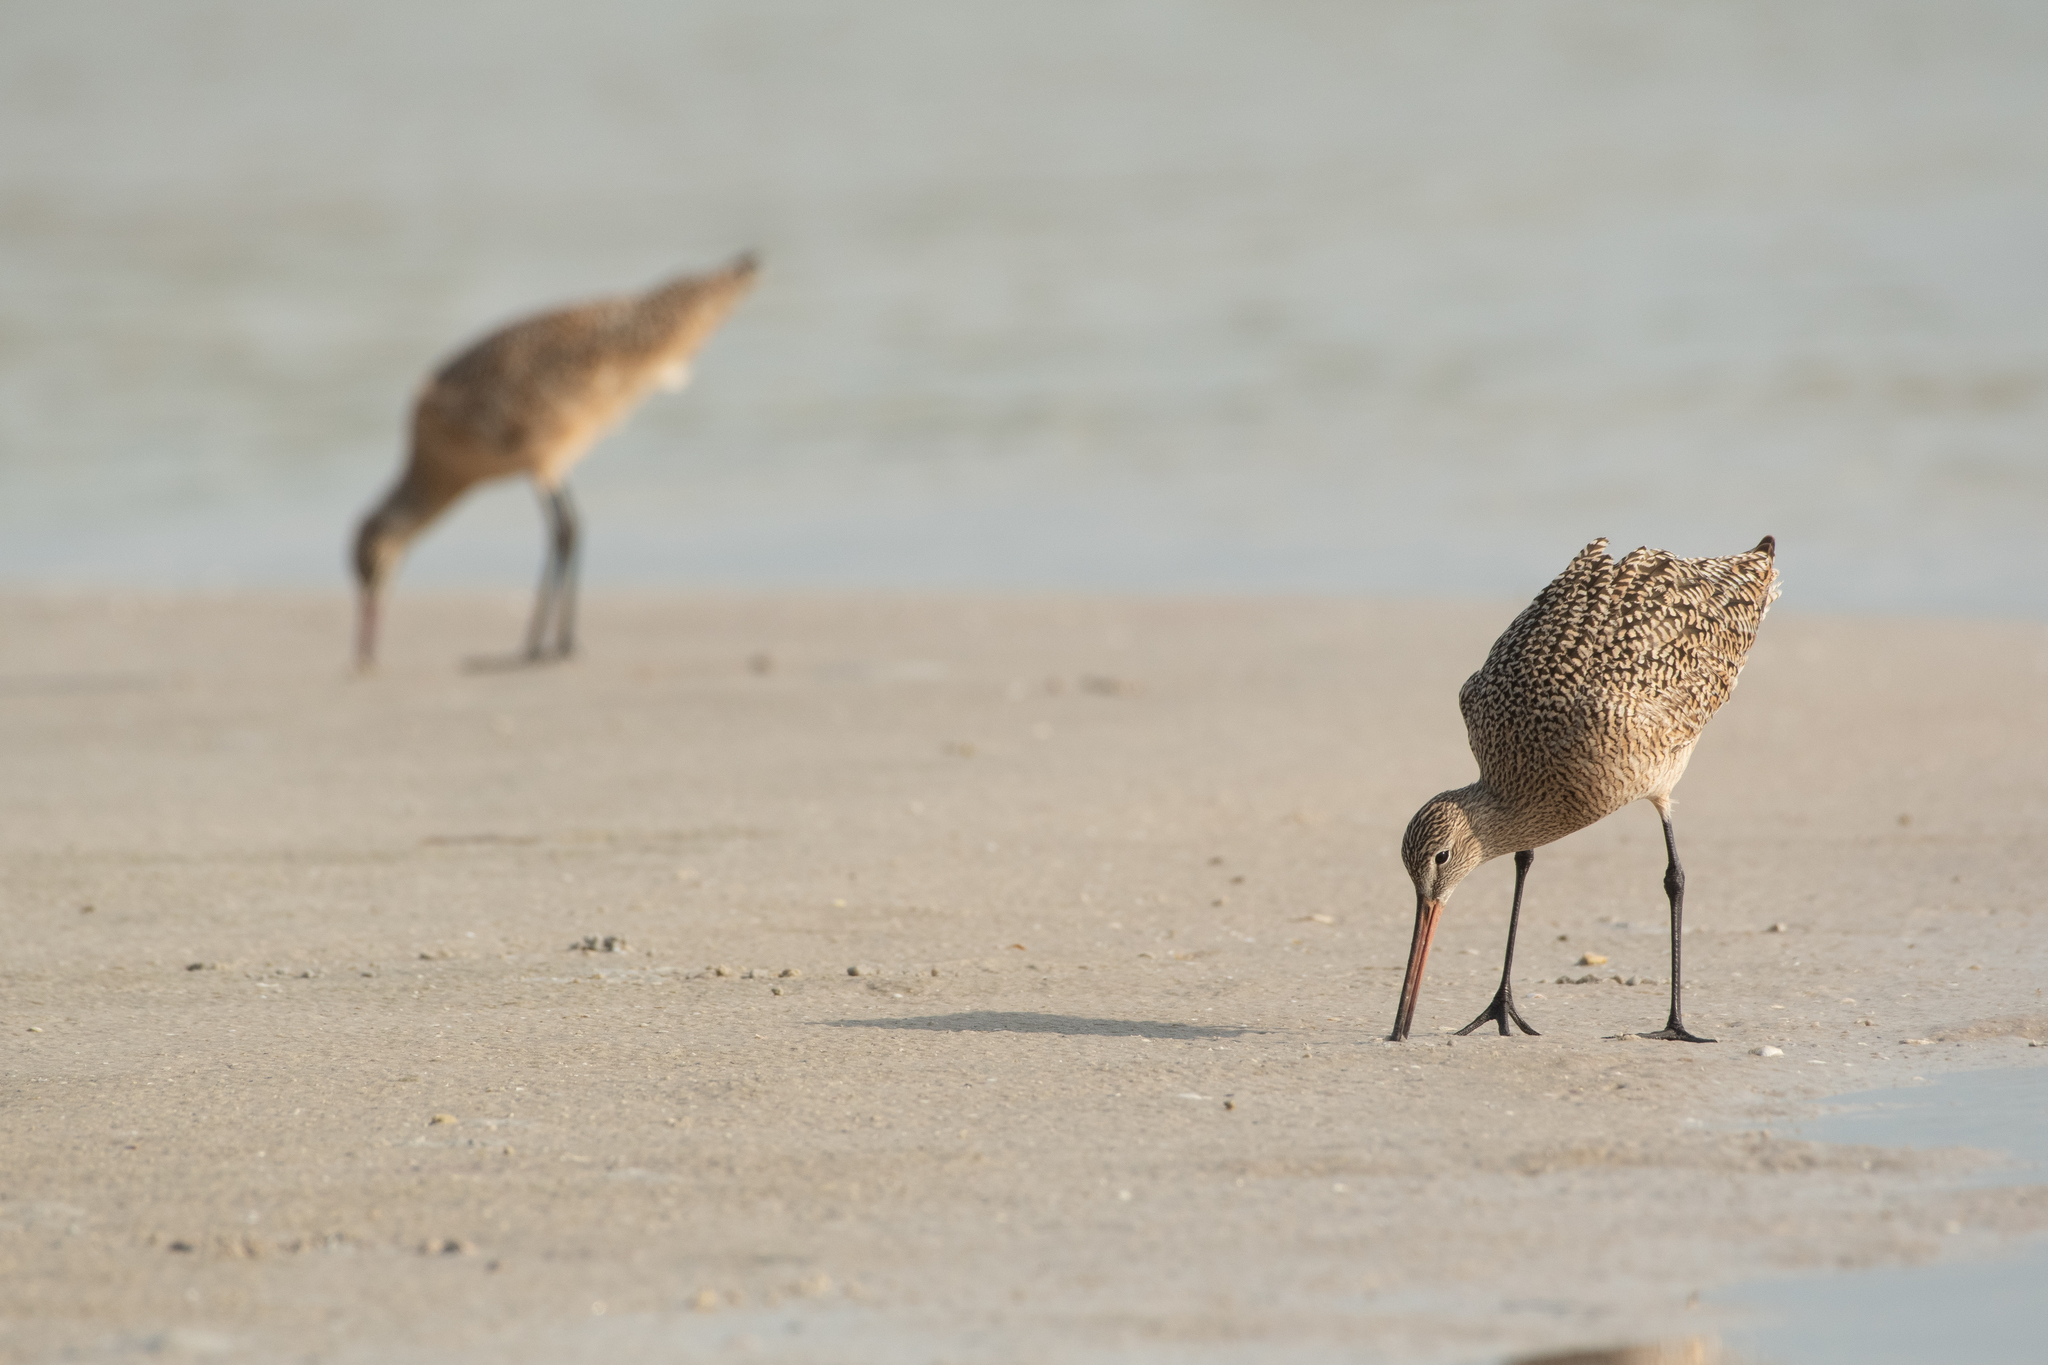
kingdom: Animalia
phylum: Chordata
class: Aves
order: Charadriiformes
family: Scolopacidae
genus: Limosa
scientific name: Limosa fedoa
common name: Marbled godwit
